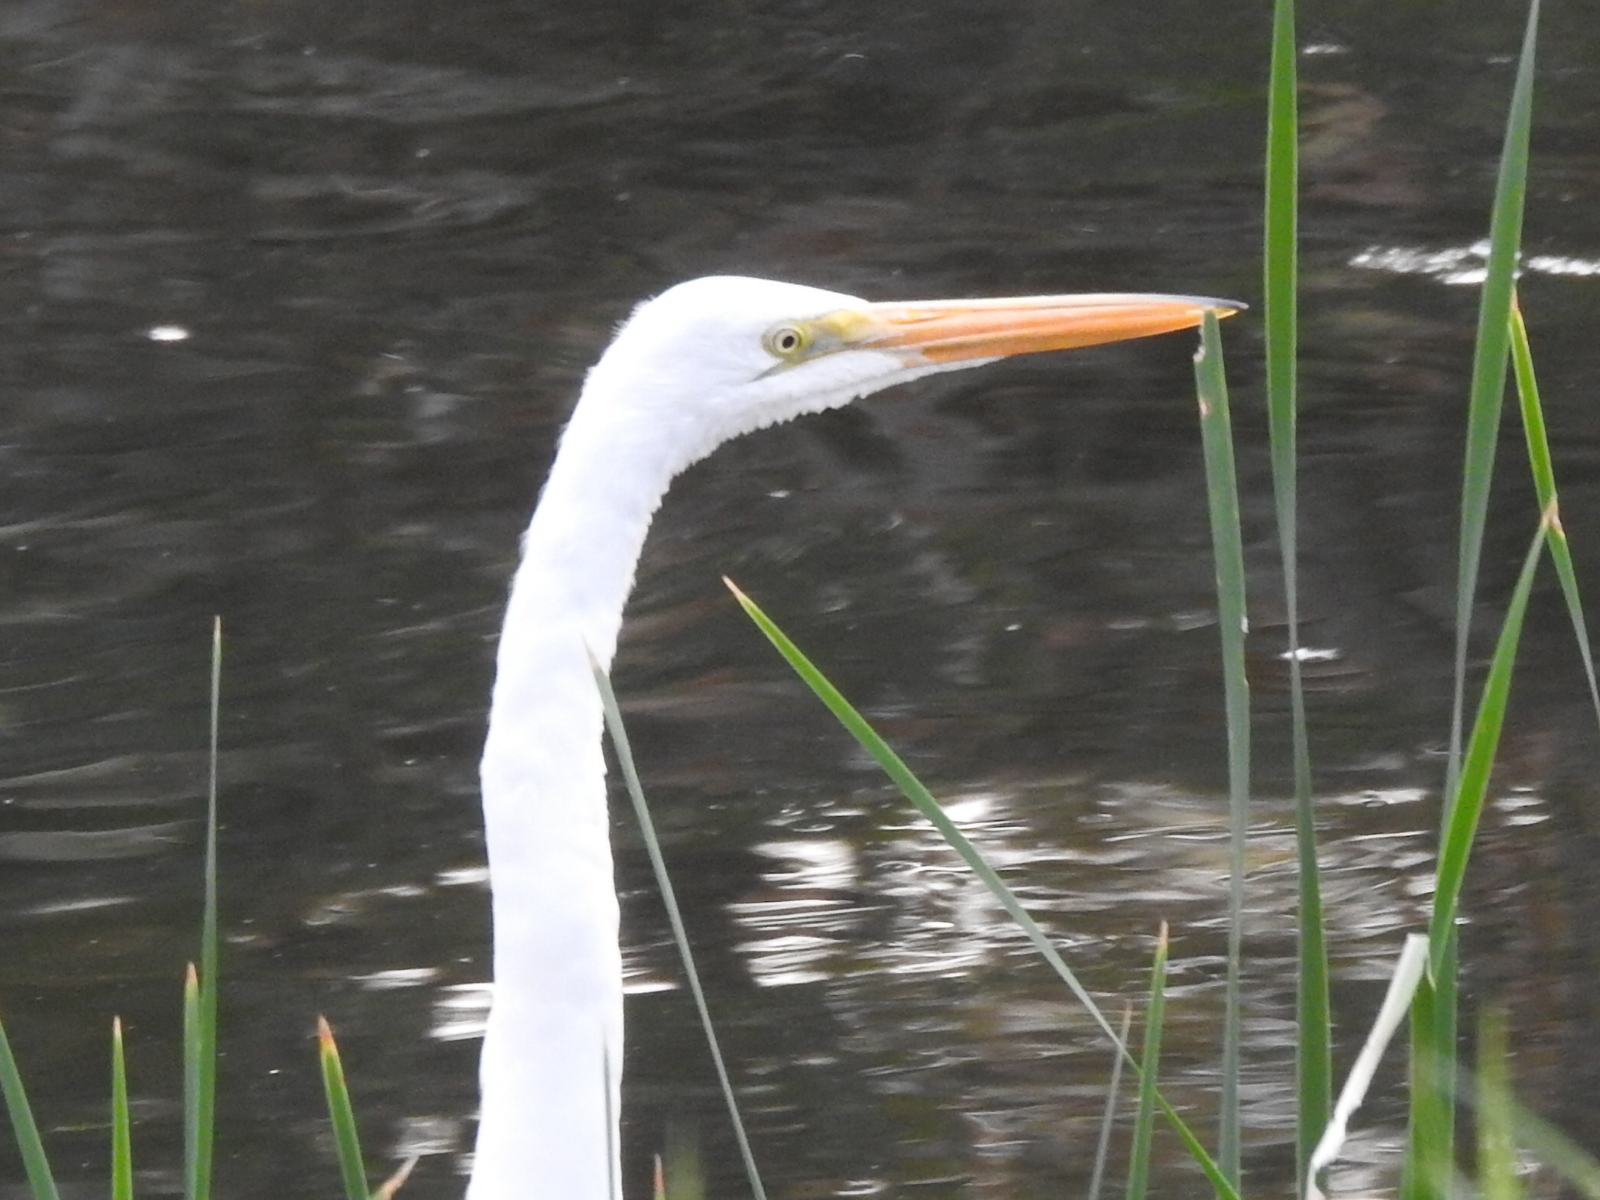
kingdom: Animalia
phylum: Chordata
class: Aves
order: Pelecaniformes
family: Ardeidae
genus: Ardea
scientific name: Ardea alba
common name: Great egret
